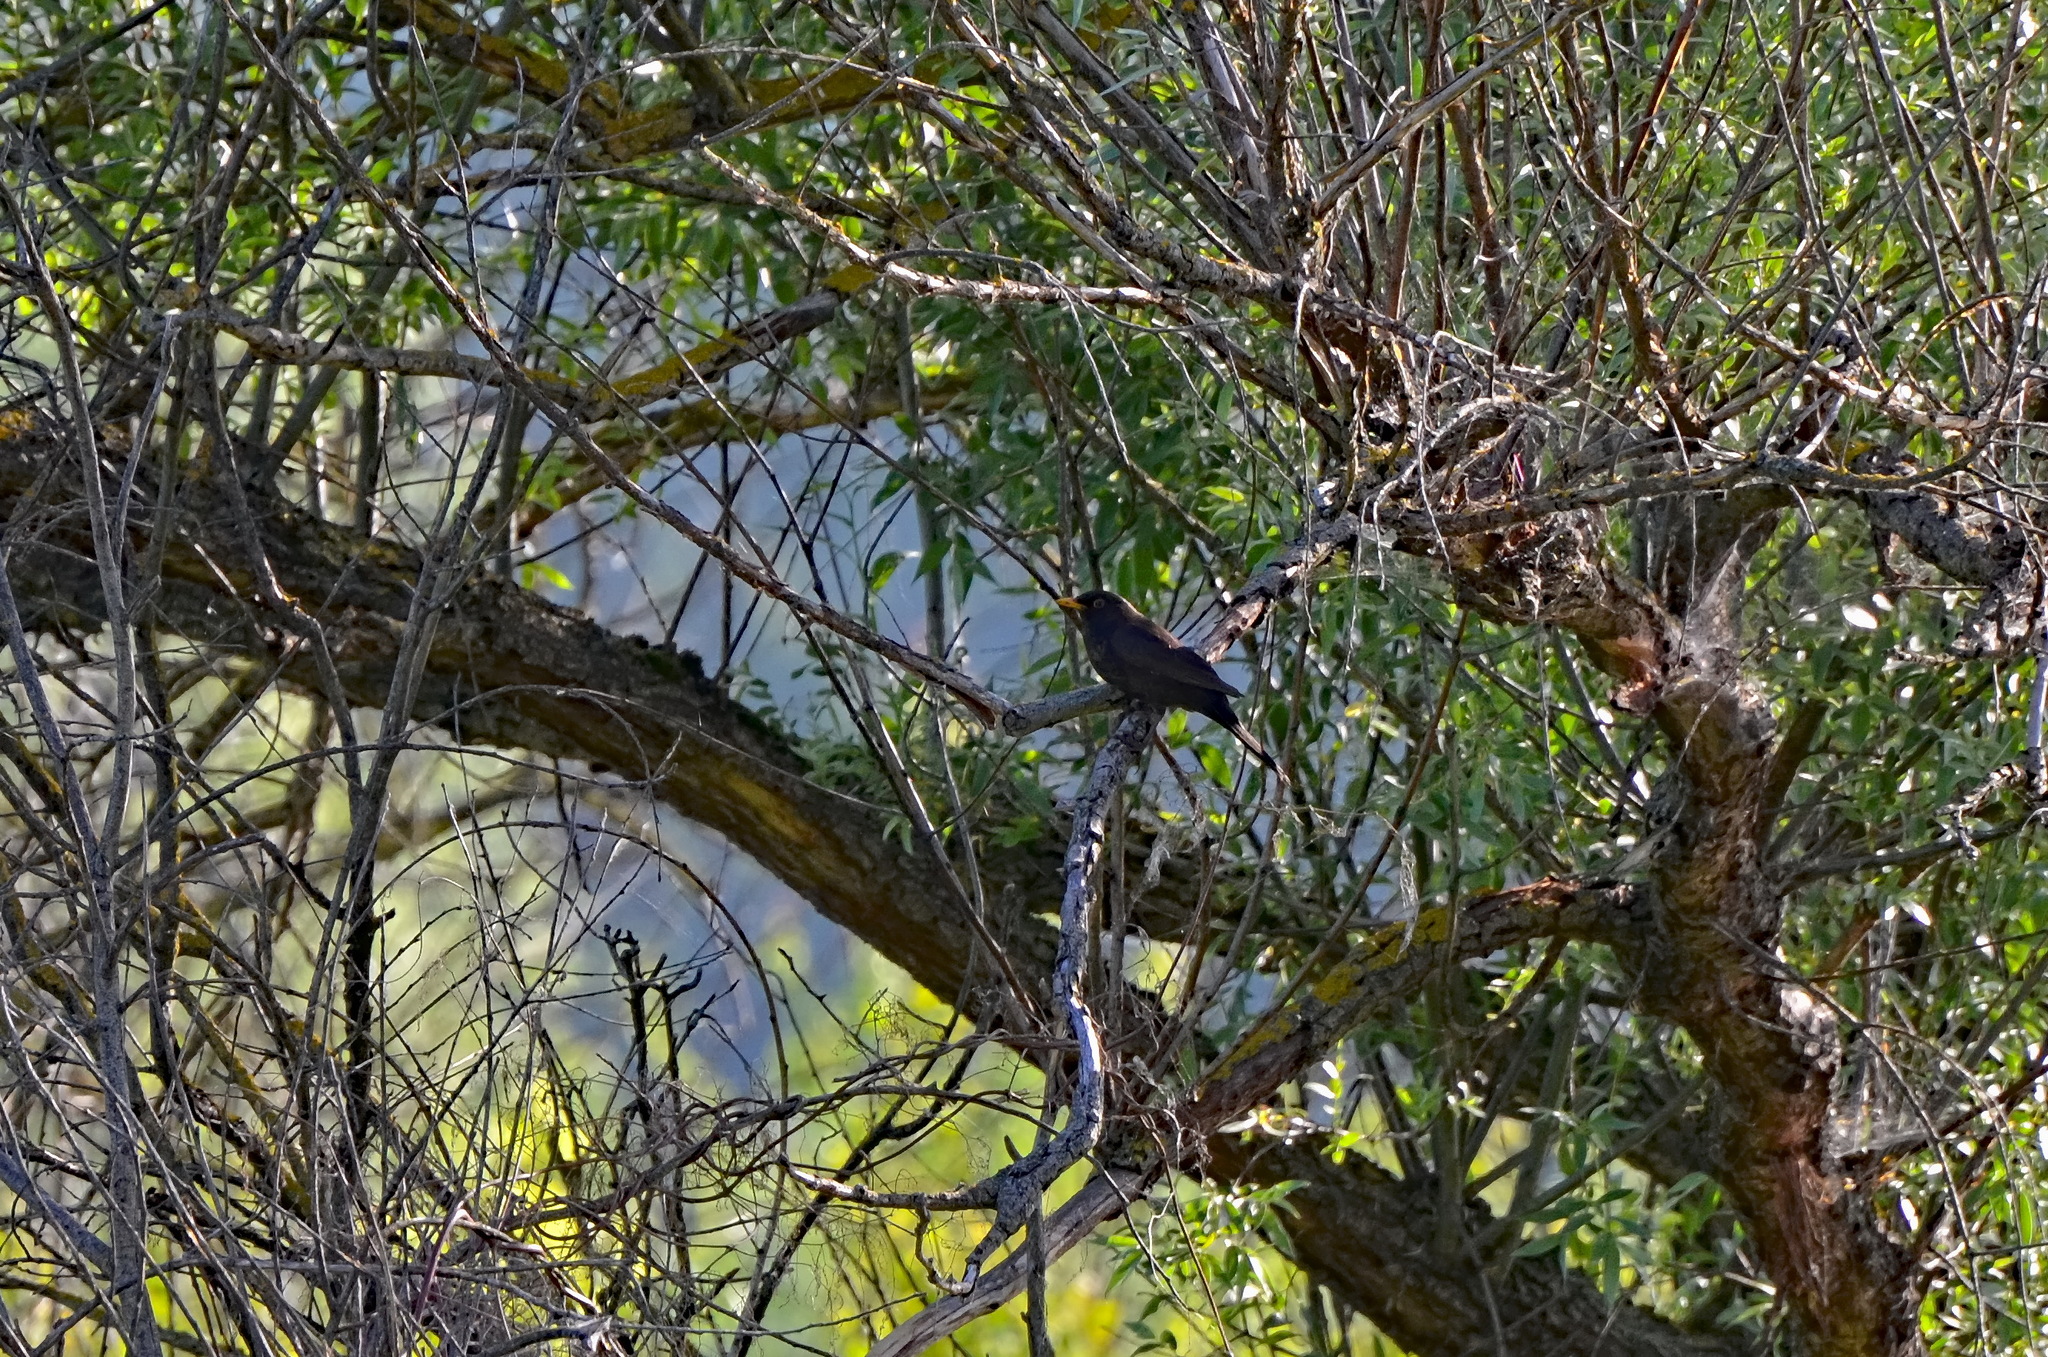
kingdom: Animalia
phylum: Chordata
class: Aves
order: Passeriformes
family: Turdidae
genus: Turdus
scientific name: Turdus merula
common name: Common blackbird
